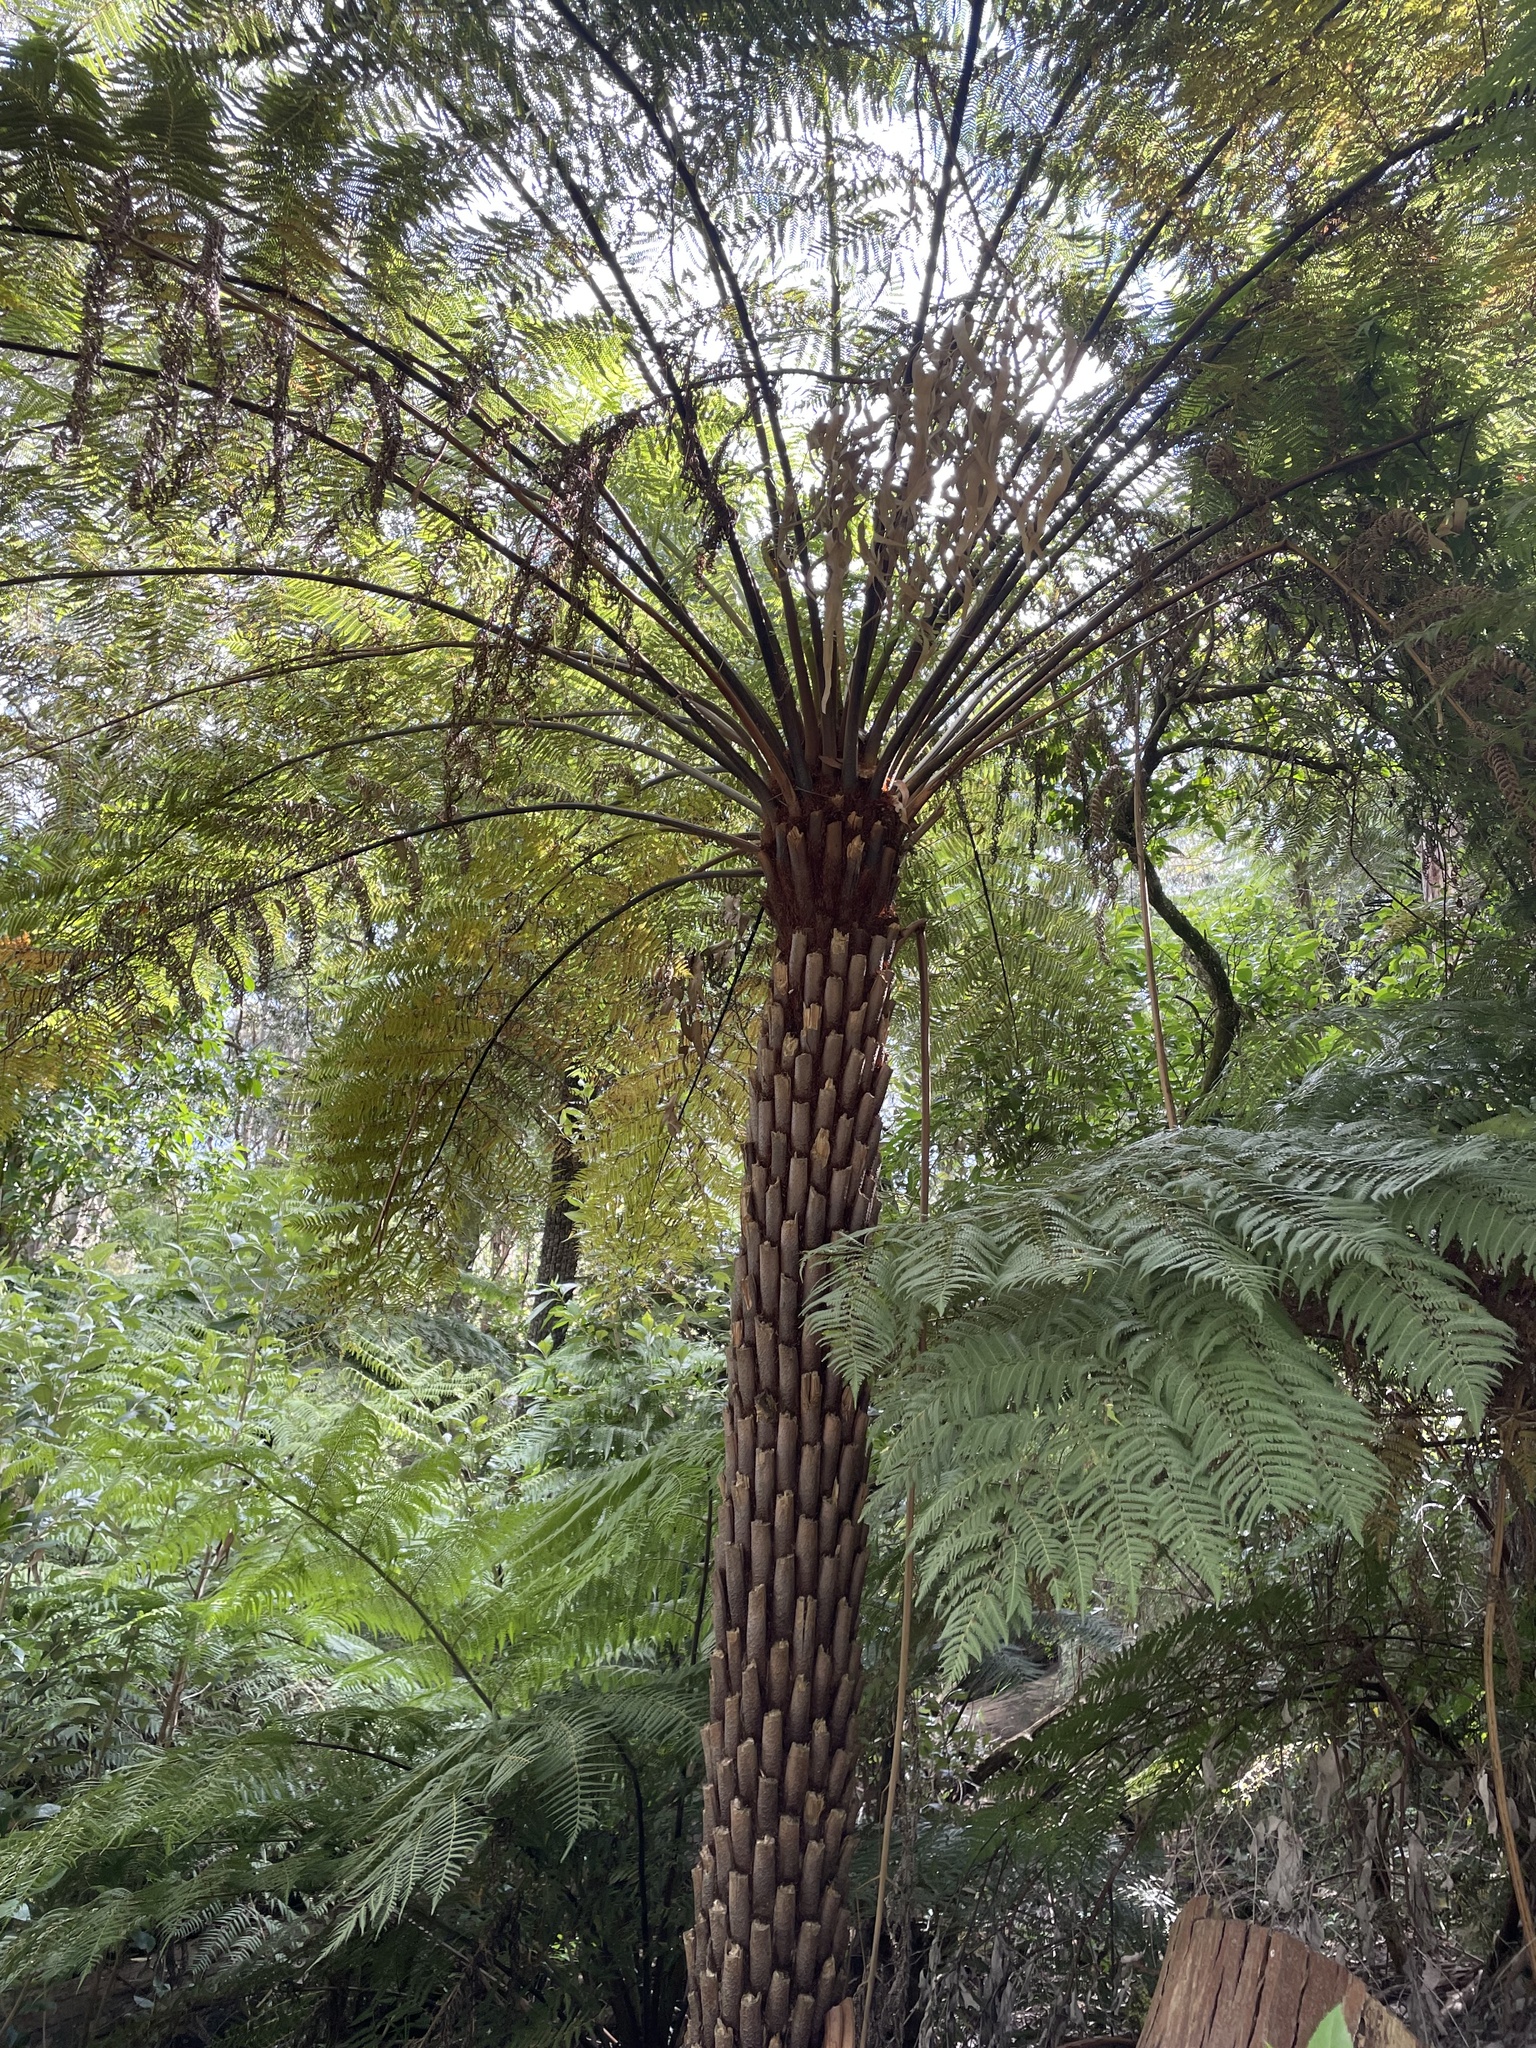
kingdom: Plantae
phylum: Tracheophyta
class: Polypodiopsida
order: Cyatheales
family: Cyatheaceae
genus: Alsophila
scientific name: Alsophila australis
